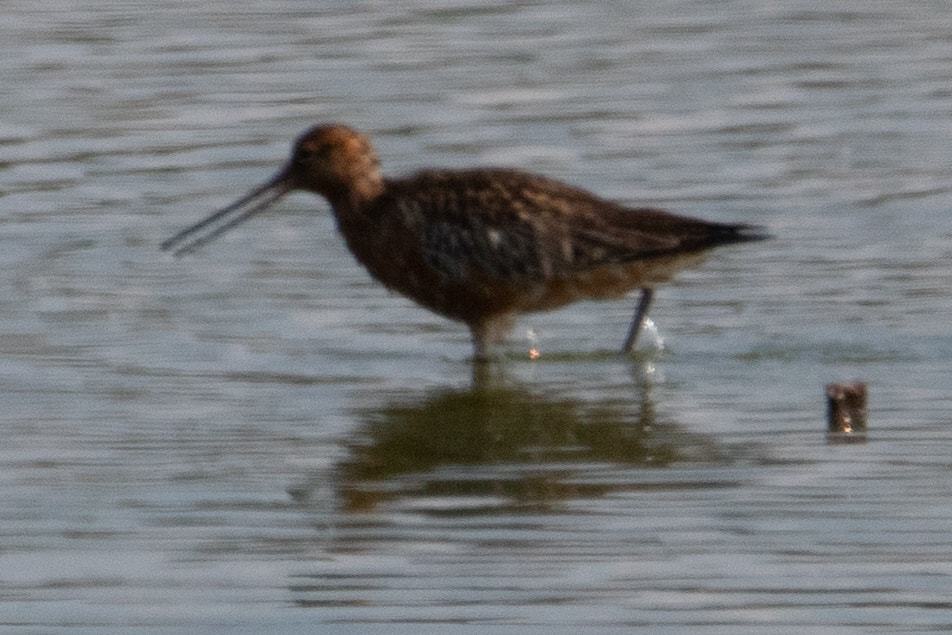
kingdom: Animalia
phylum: Chordata
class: Aves
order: Charadriiformes
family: Scolopacidae
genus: Limosa
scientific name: Limosa lapponica
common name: Bar-tailed godwit
